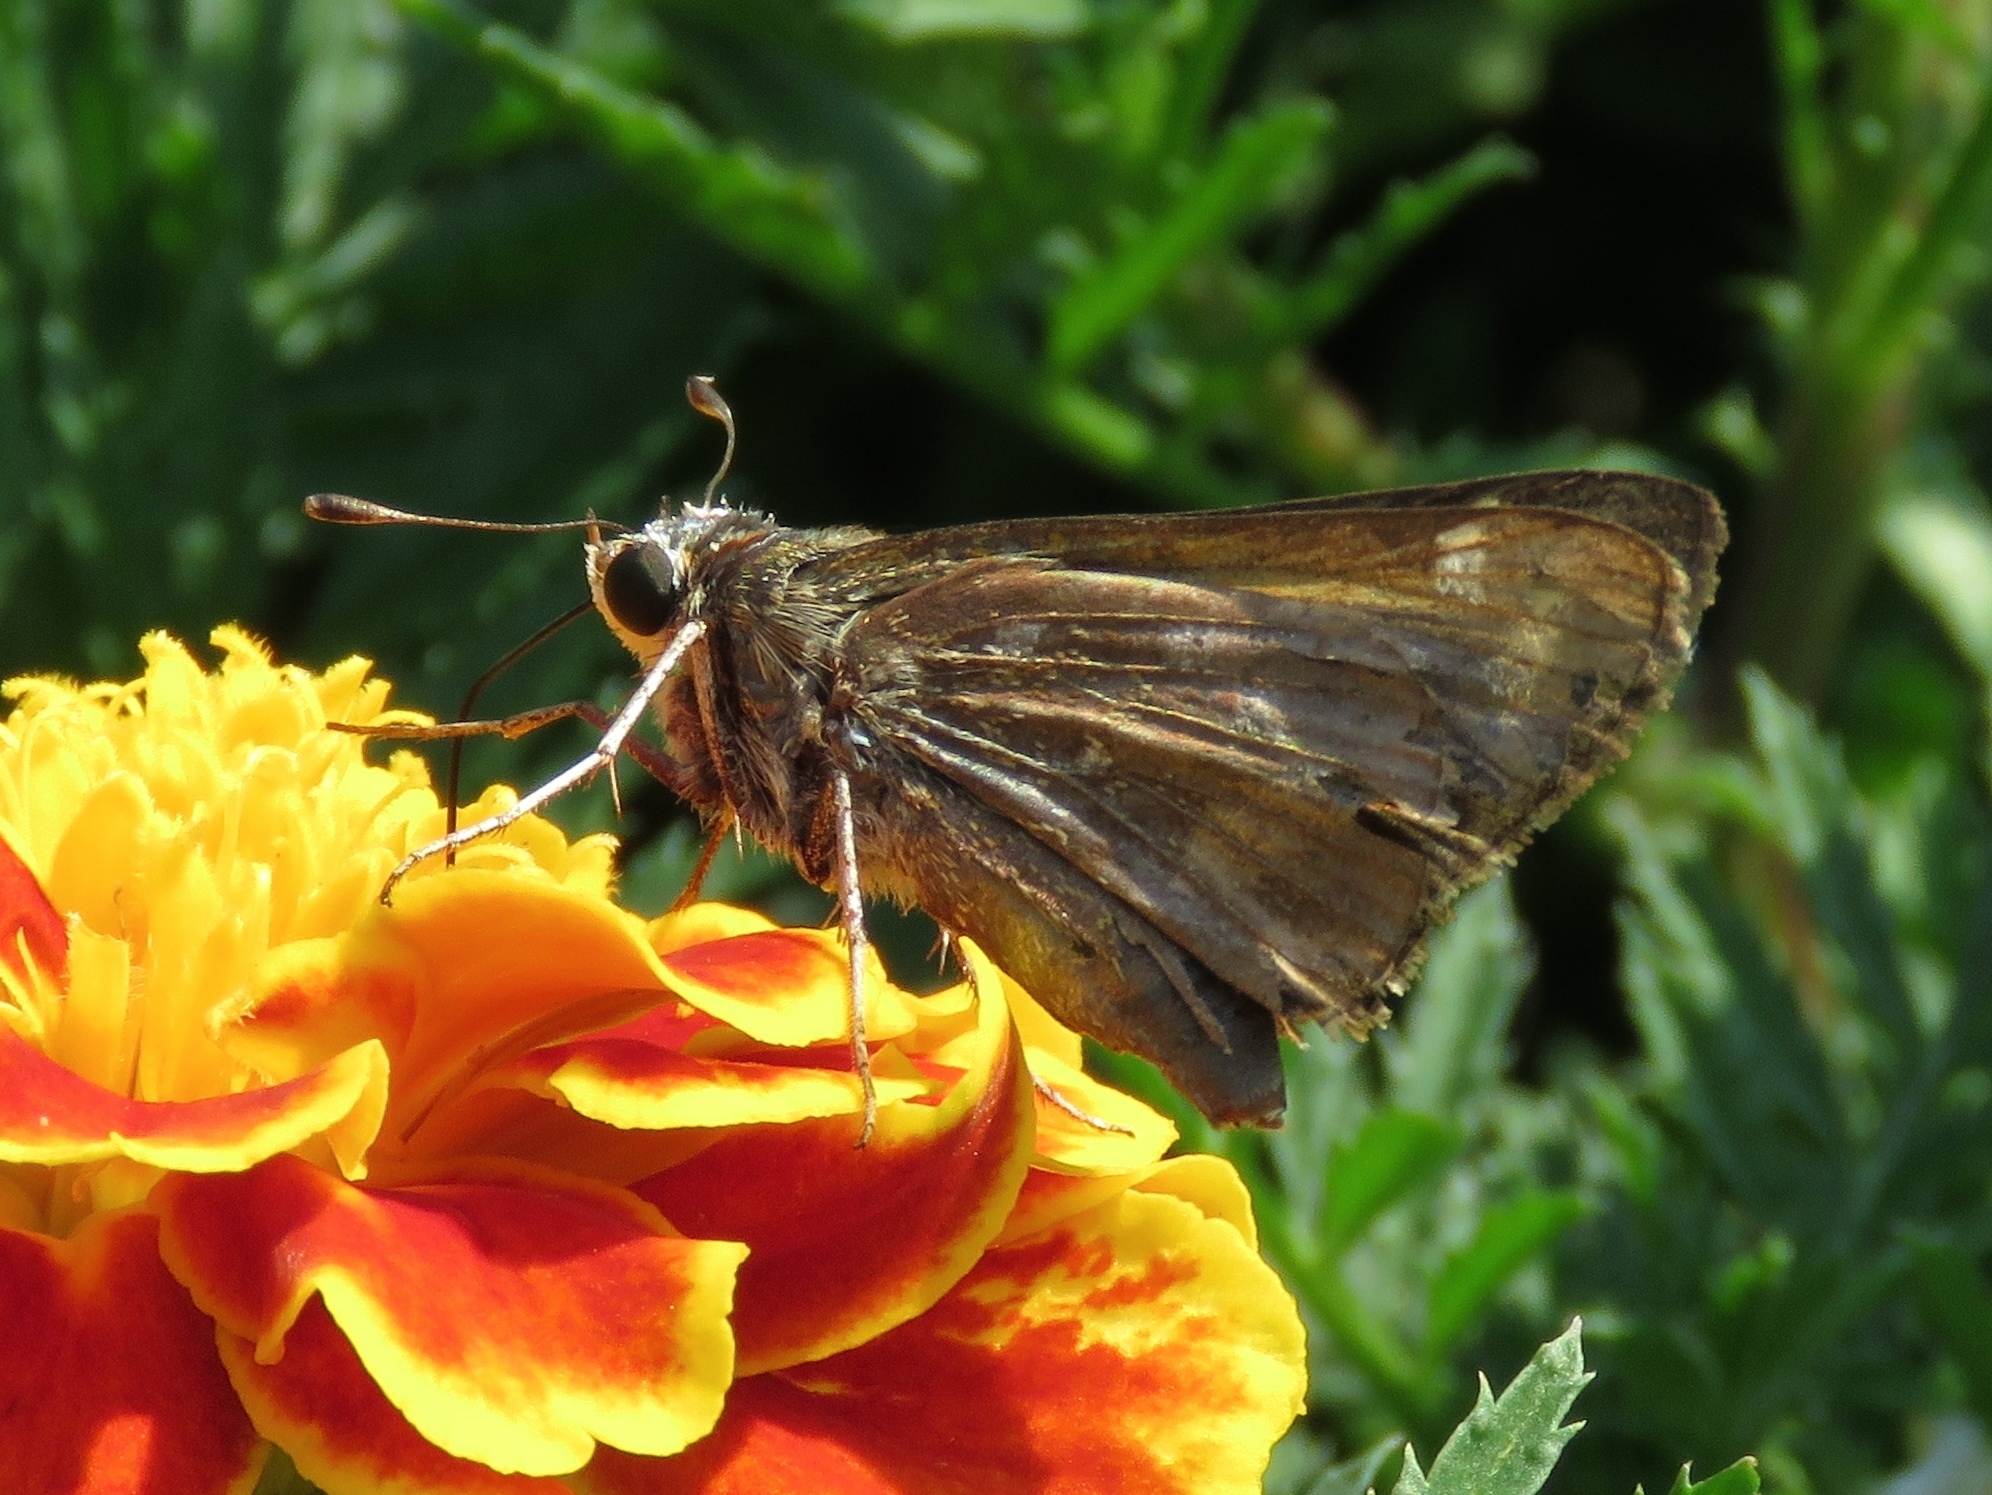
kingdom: Animalia
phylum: Arthropoda
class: Insecta
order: Lepidoptera
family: Hesperiidae
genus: Atalopedes
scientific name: Atalopedes
